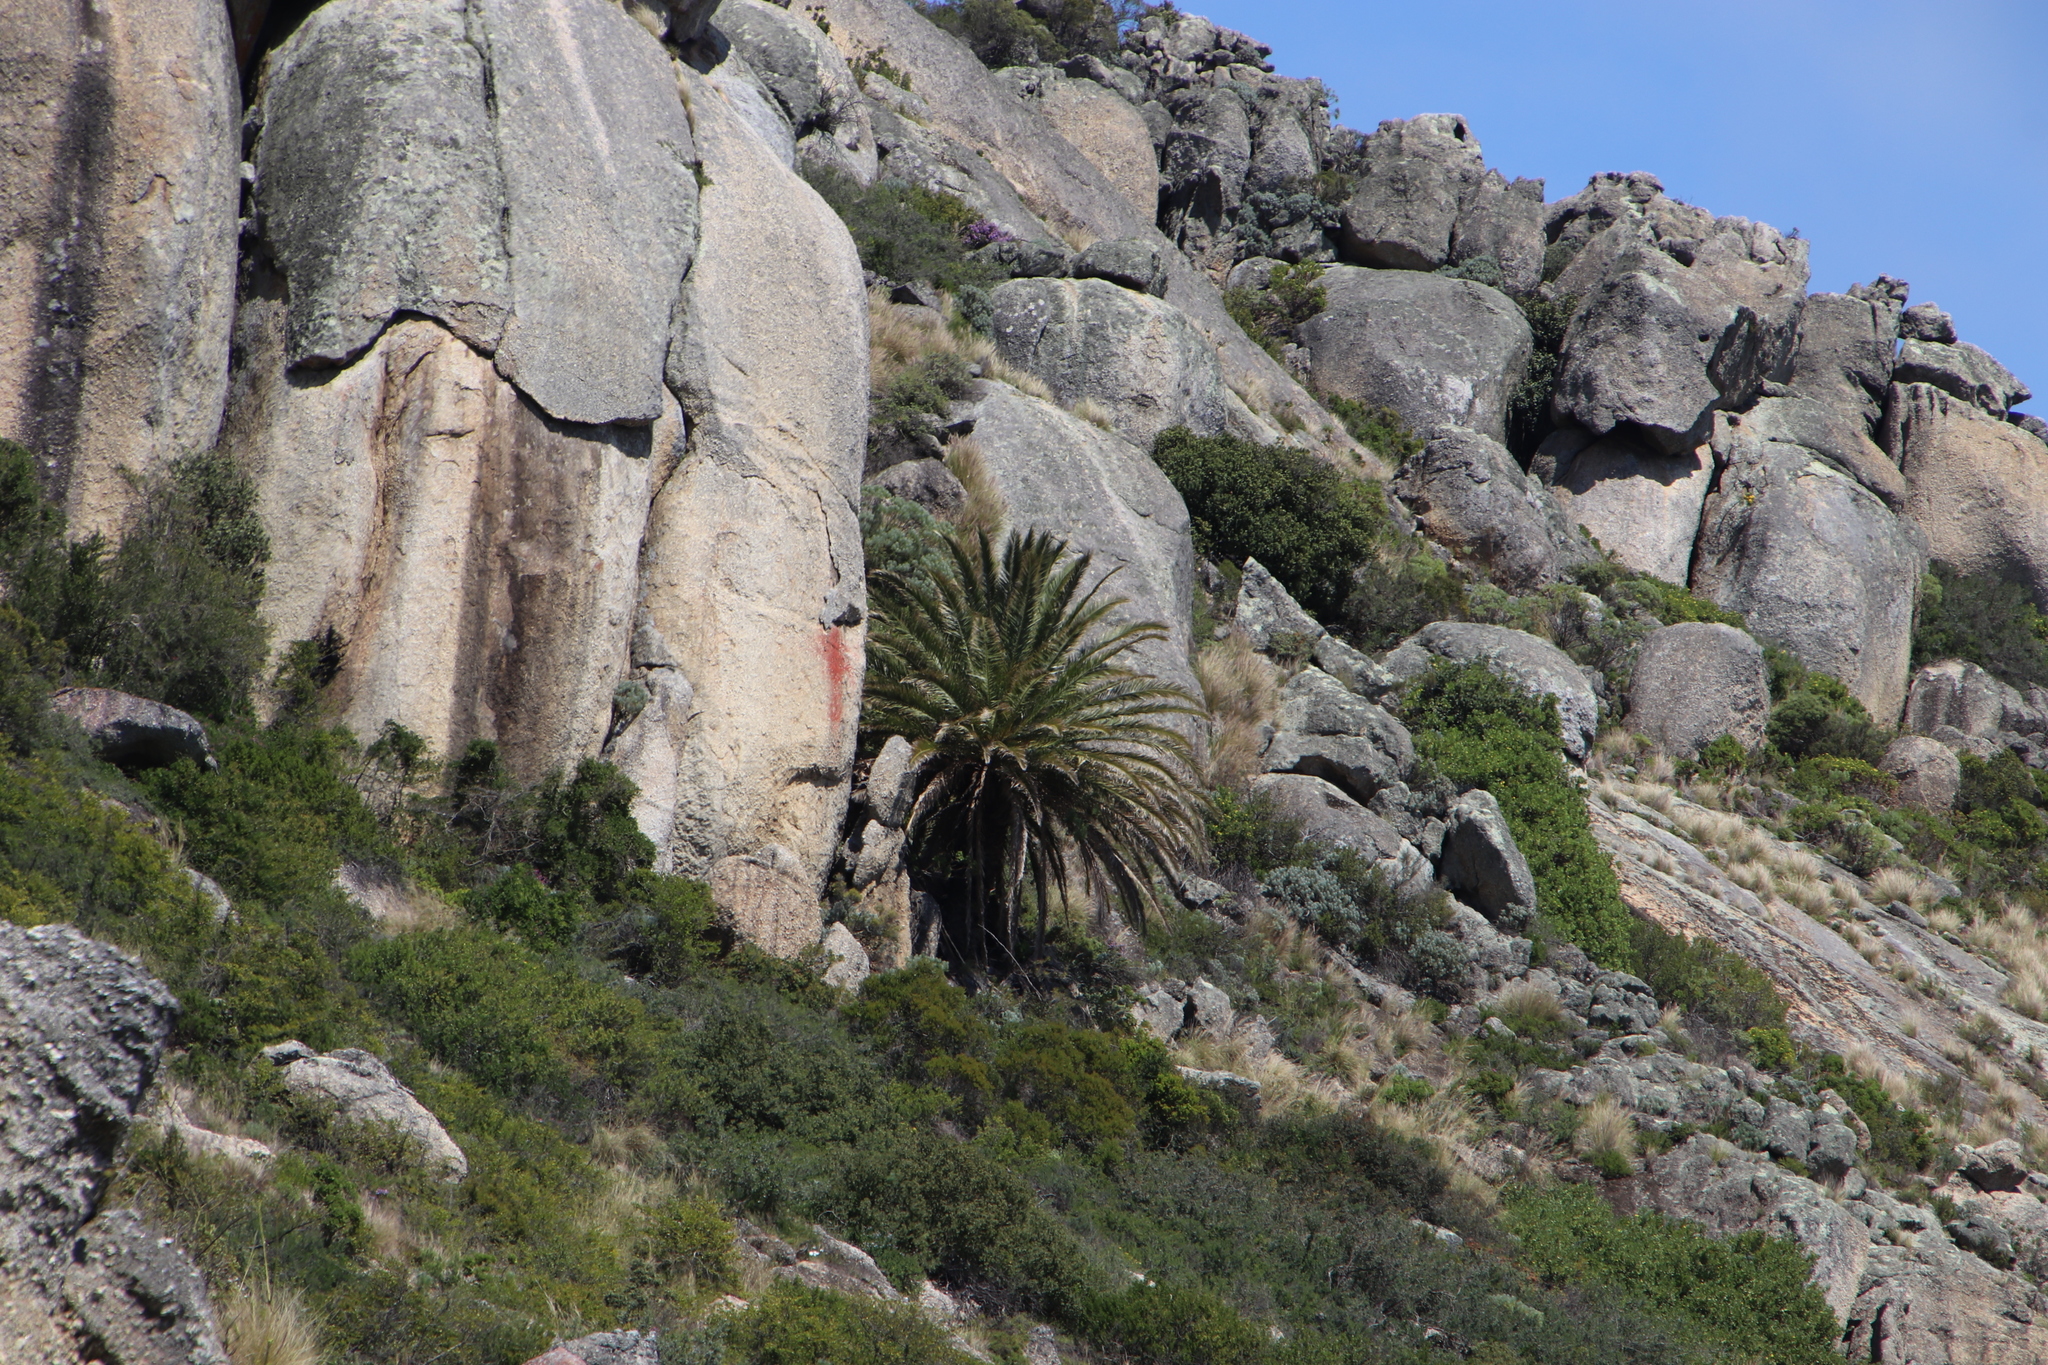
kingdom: Plantae
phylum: Tracheophyta
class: Liliopsida
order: Arecales
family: Arecaceae
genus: Phoenix
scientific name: Phoenix canariensis
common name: Canary island date palm
